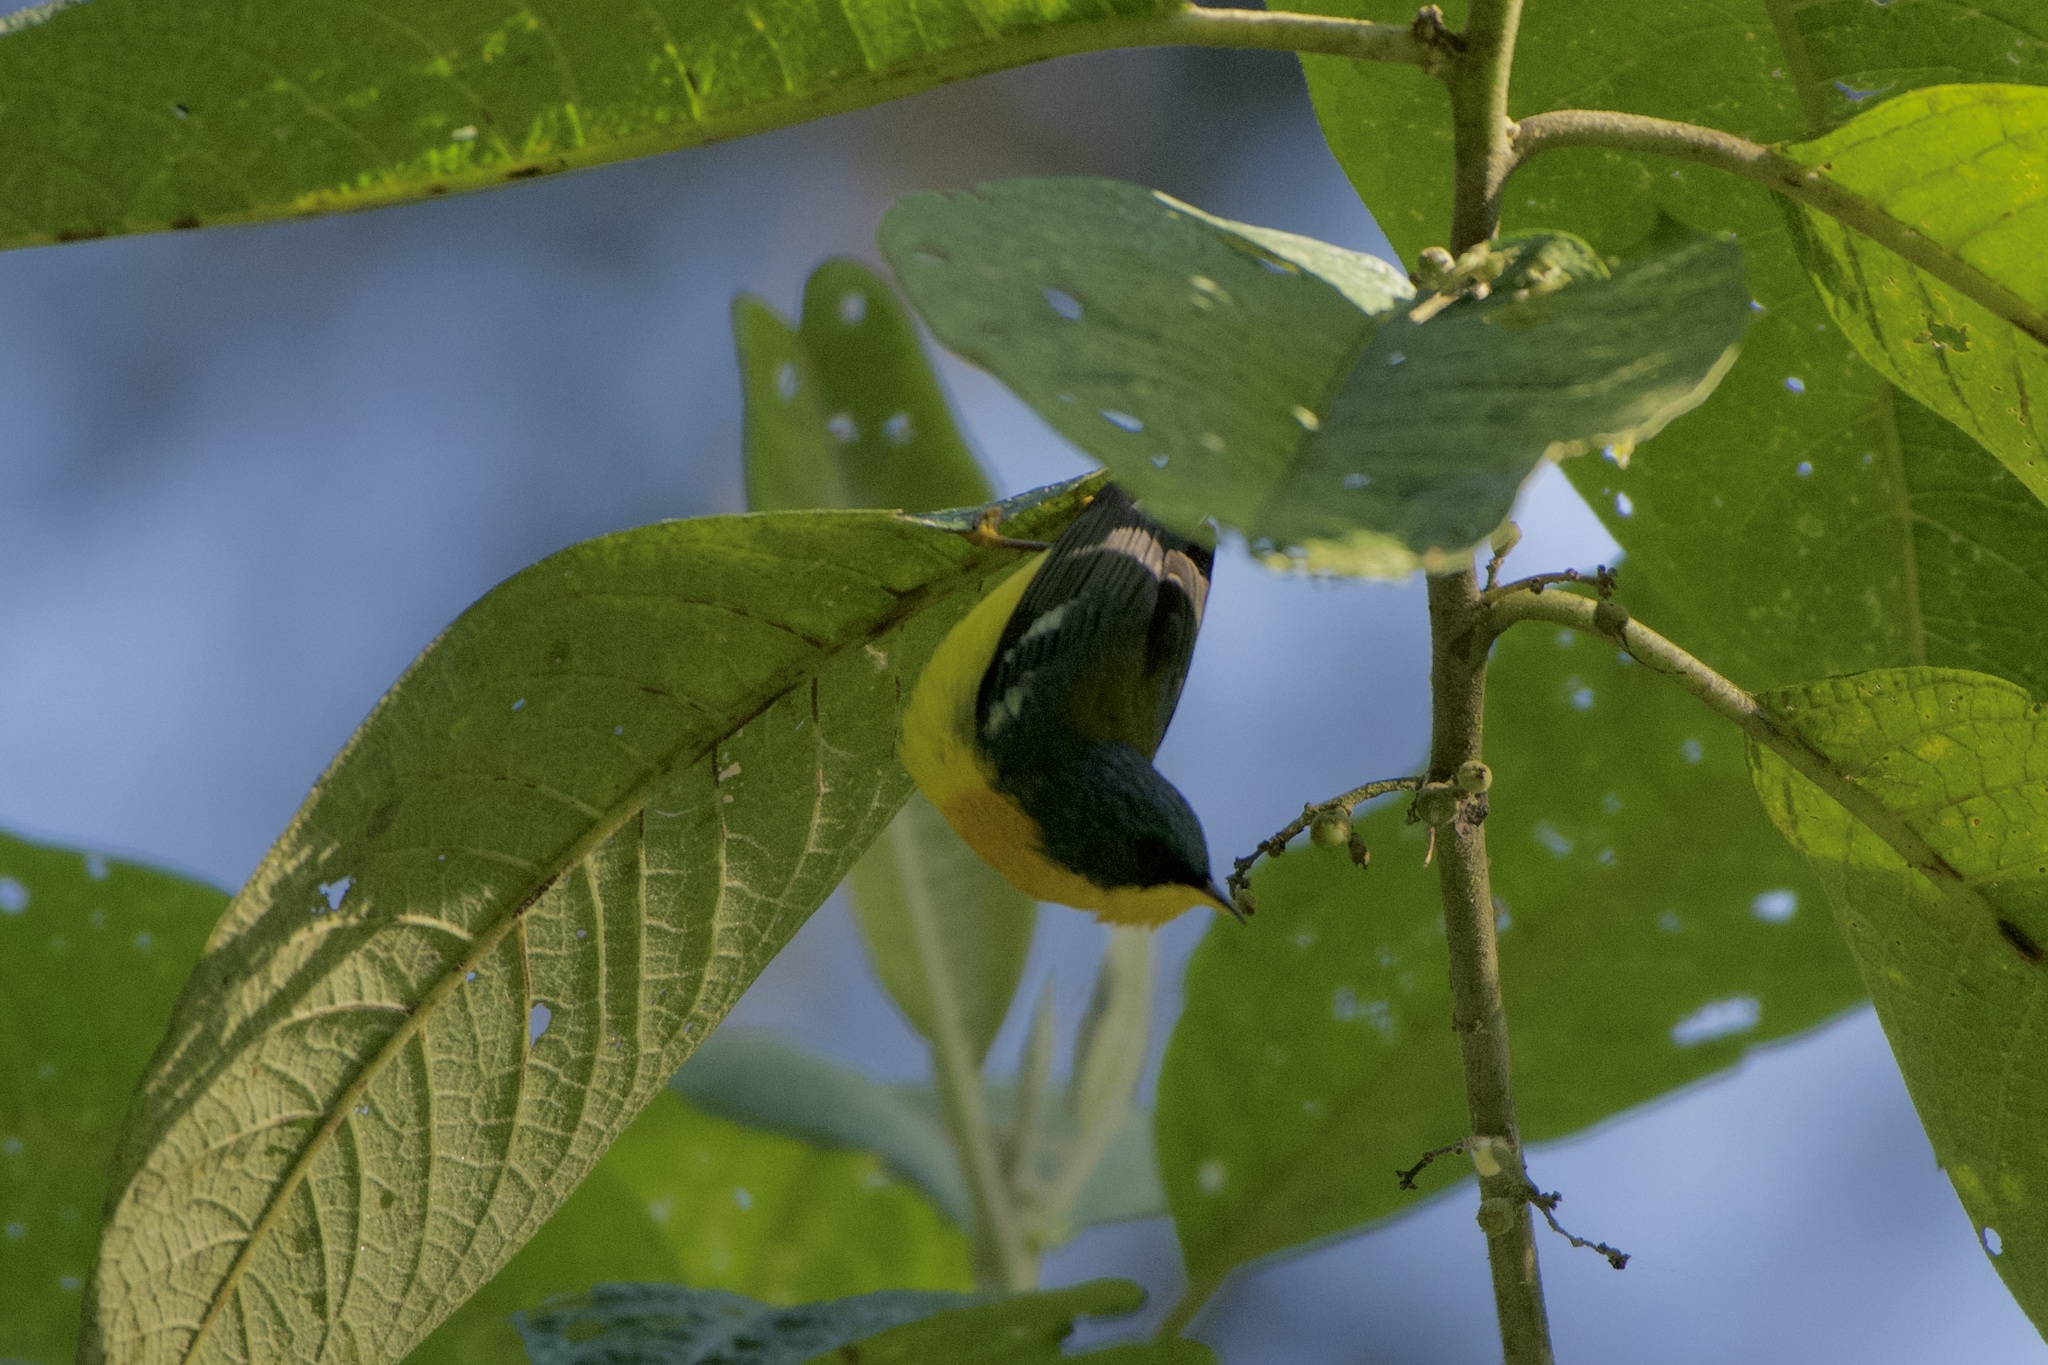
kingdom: Animalia
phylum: Chordata
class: Aves
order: Passeriformes
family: Parulidae
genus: Setophaga
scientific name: Setophaga pitiayumi
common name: Tropical parula
